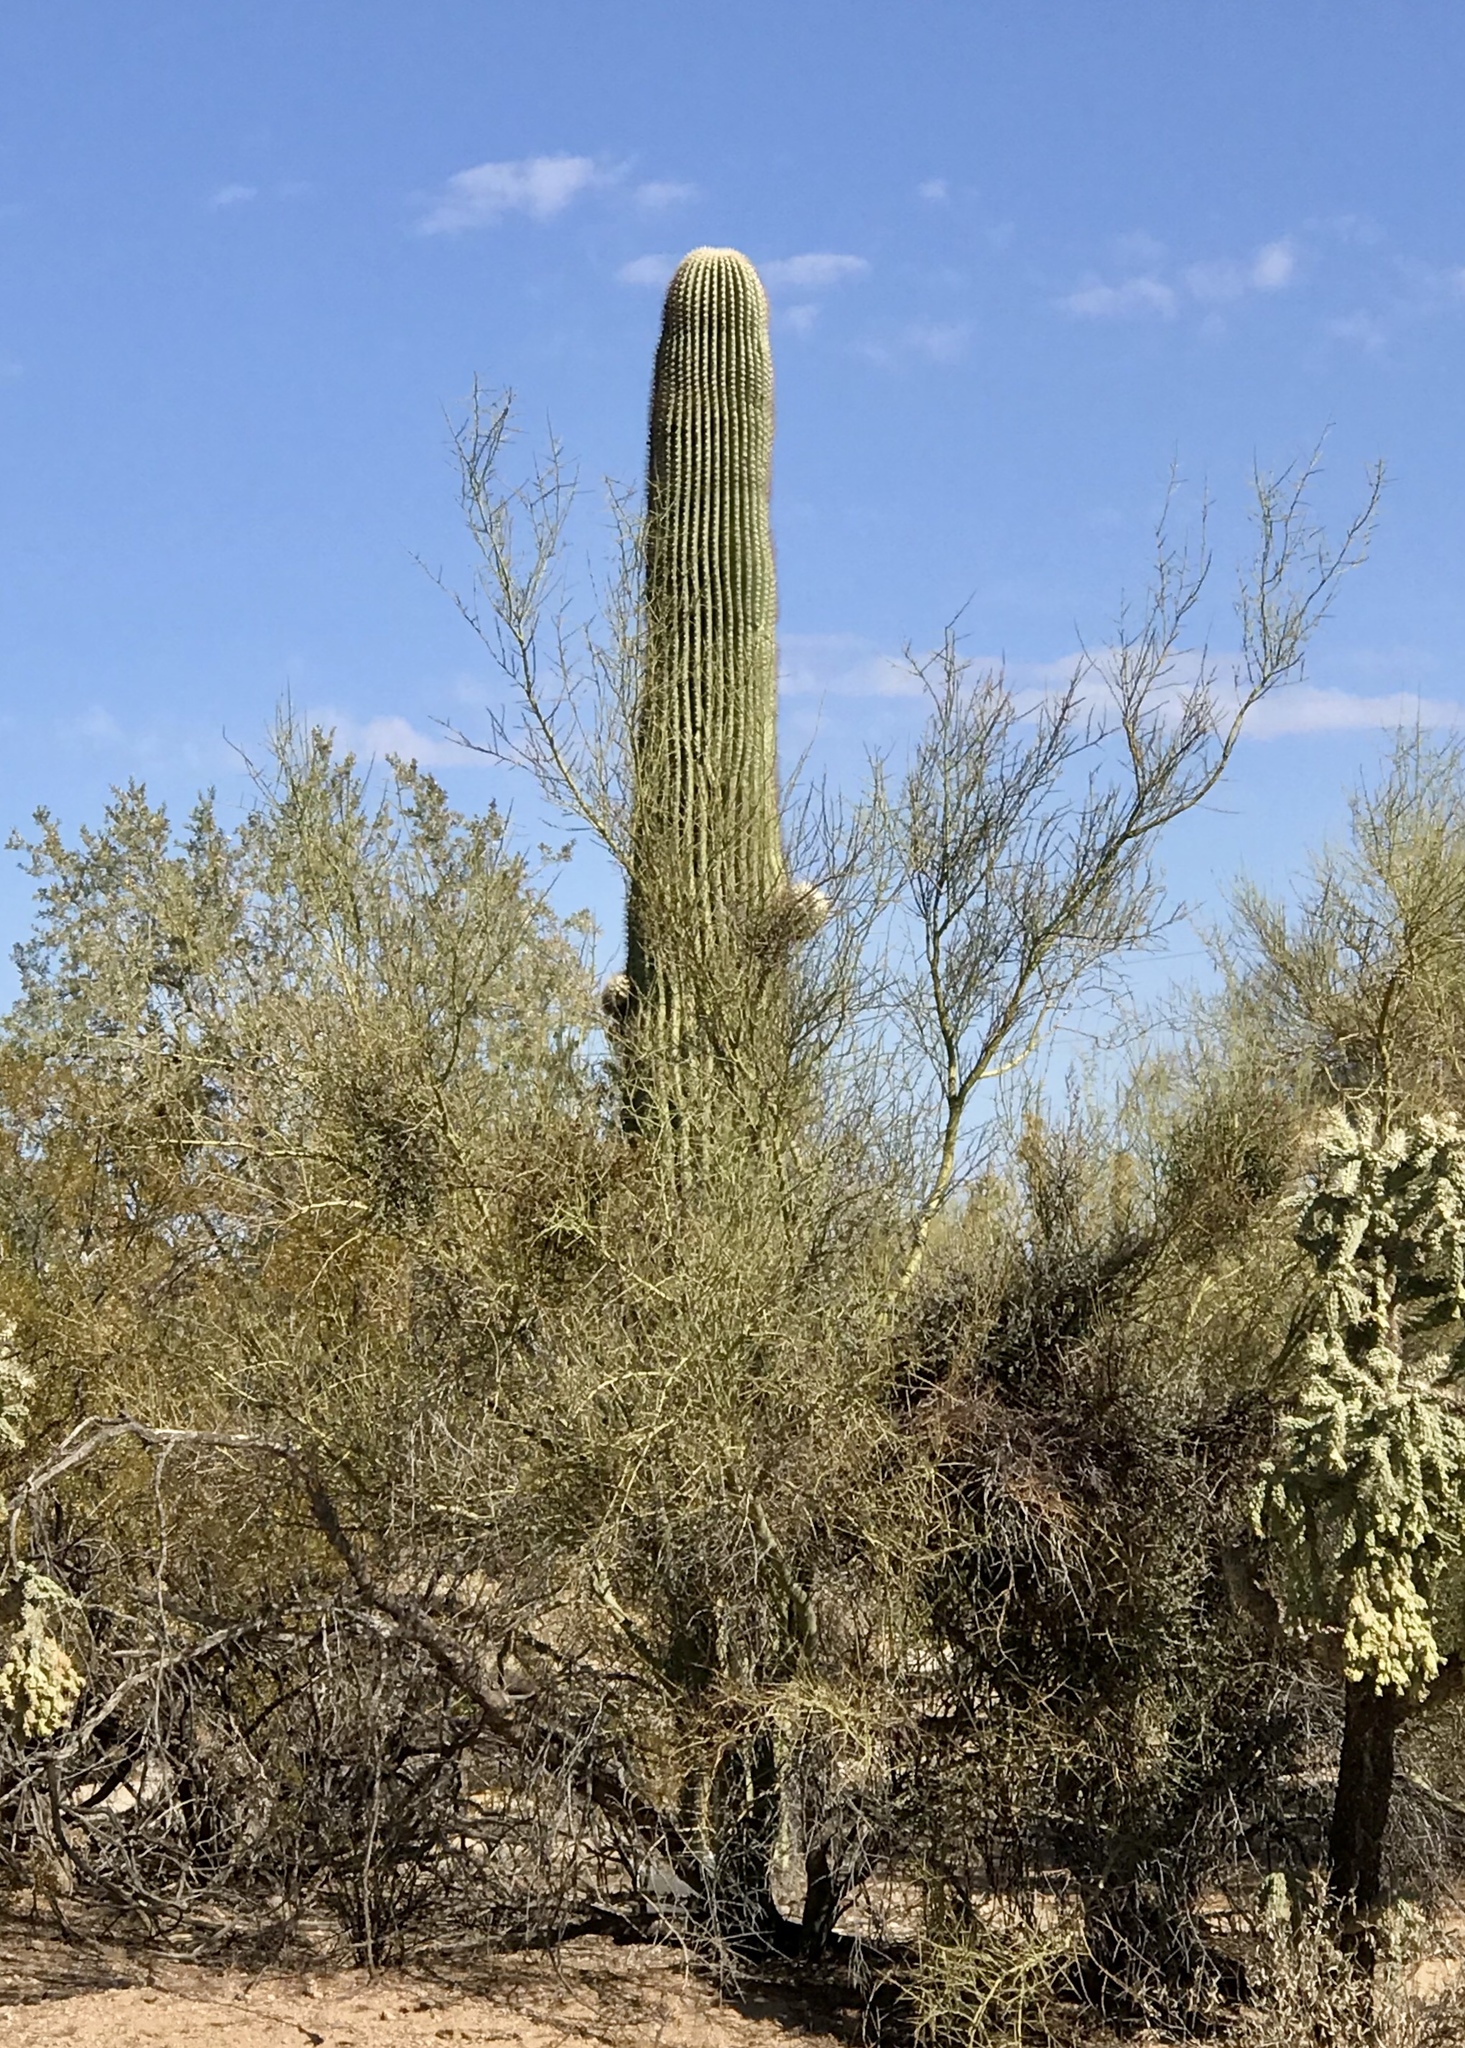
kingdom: Plantae
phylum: Tracheophyta
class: Magnoliopsida
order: Caryophyllales
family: Cactaceae
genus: Carnegiea
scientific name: Carnegiea gigantea
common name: Saguaro
